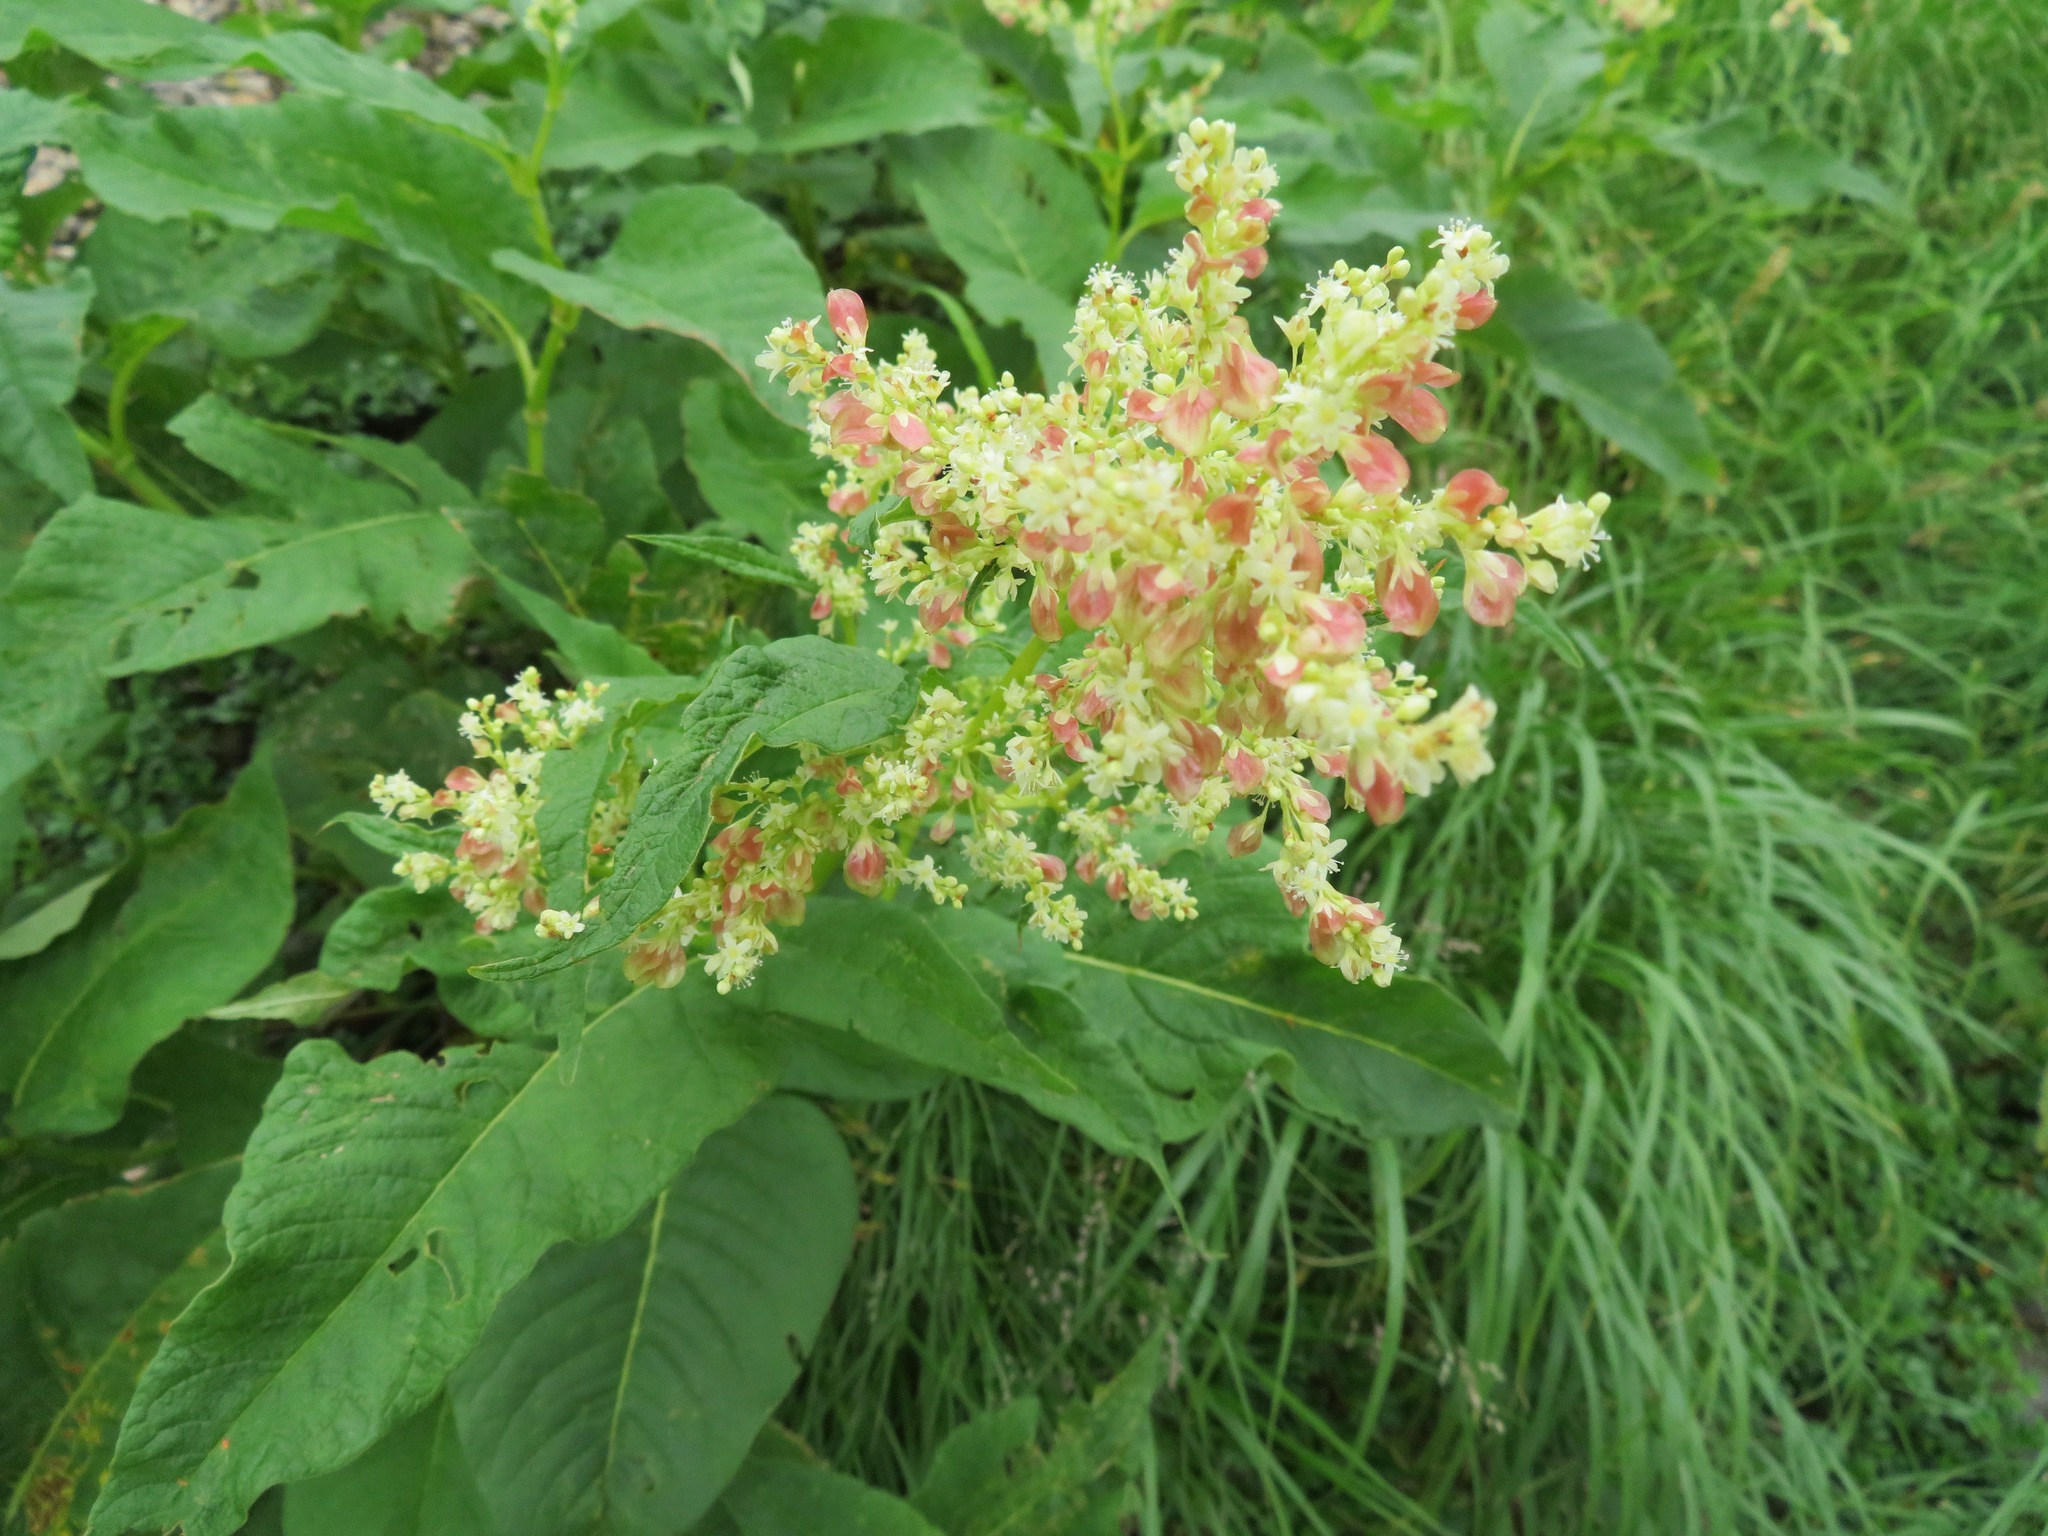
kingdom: Plantae
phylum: Tracheophyta
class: Magnoliopsida
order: Caryophyllales
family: Polygonaceae
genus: Koenigia
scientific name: Koenigia weyrichii
